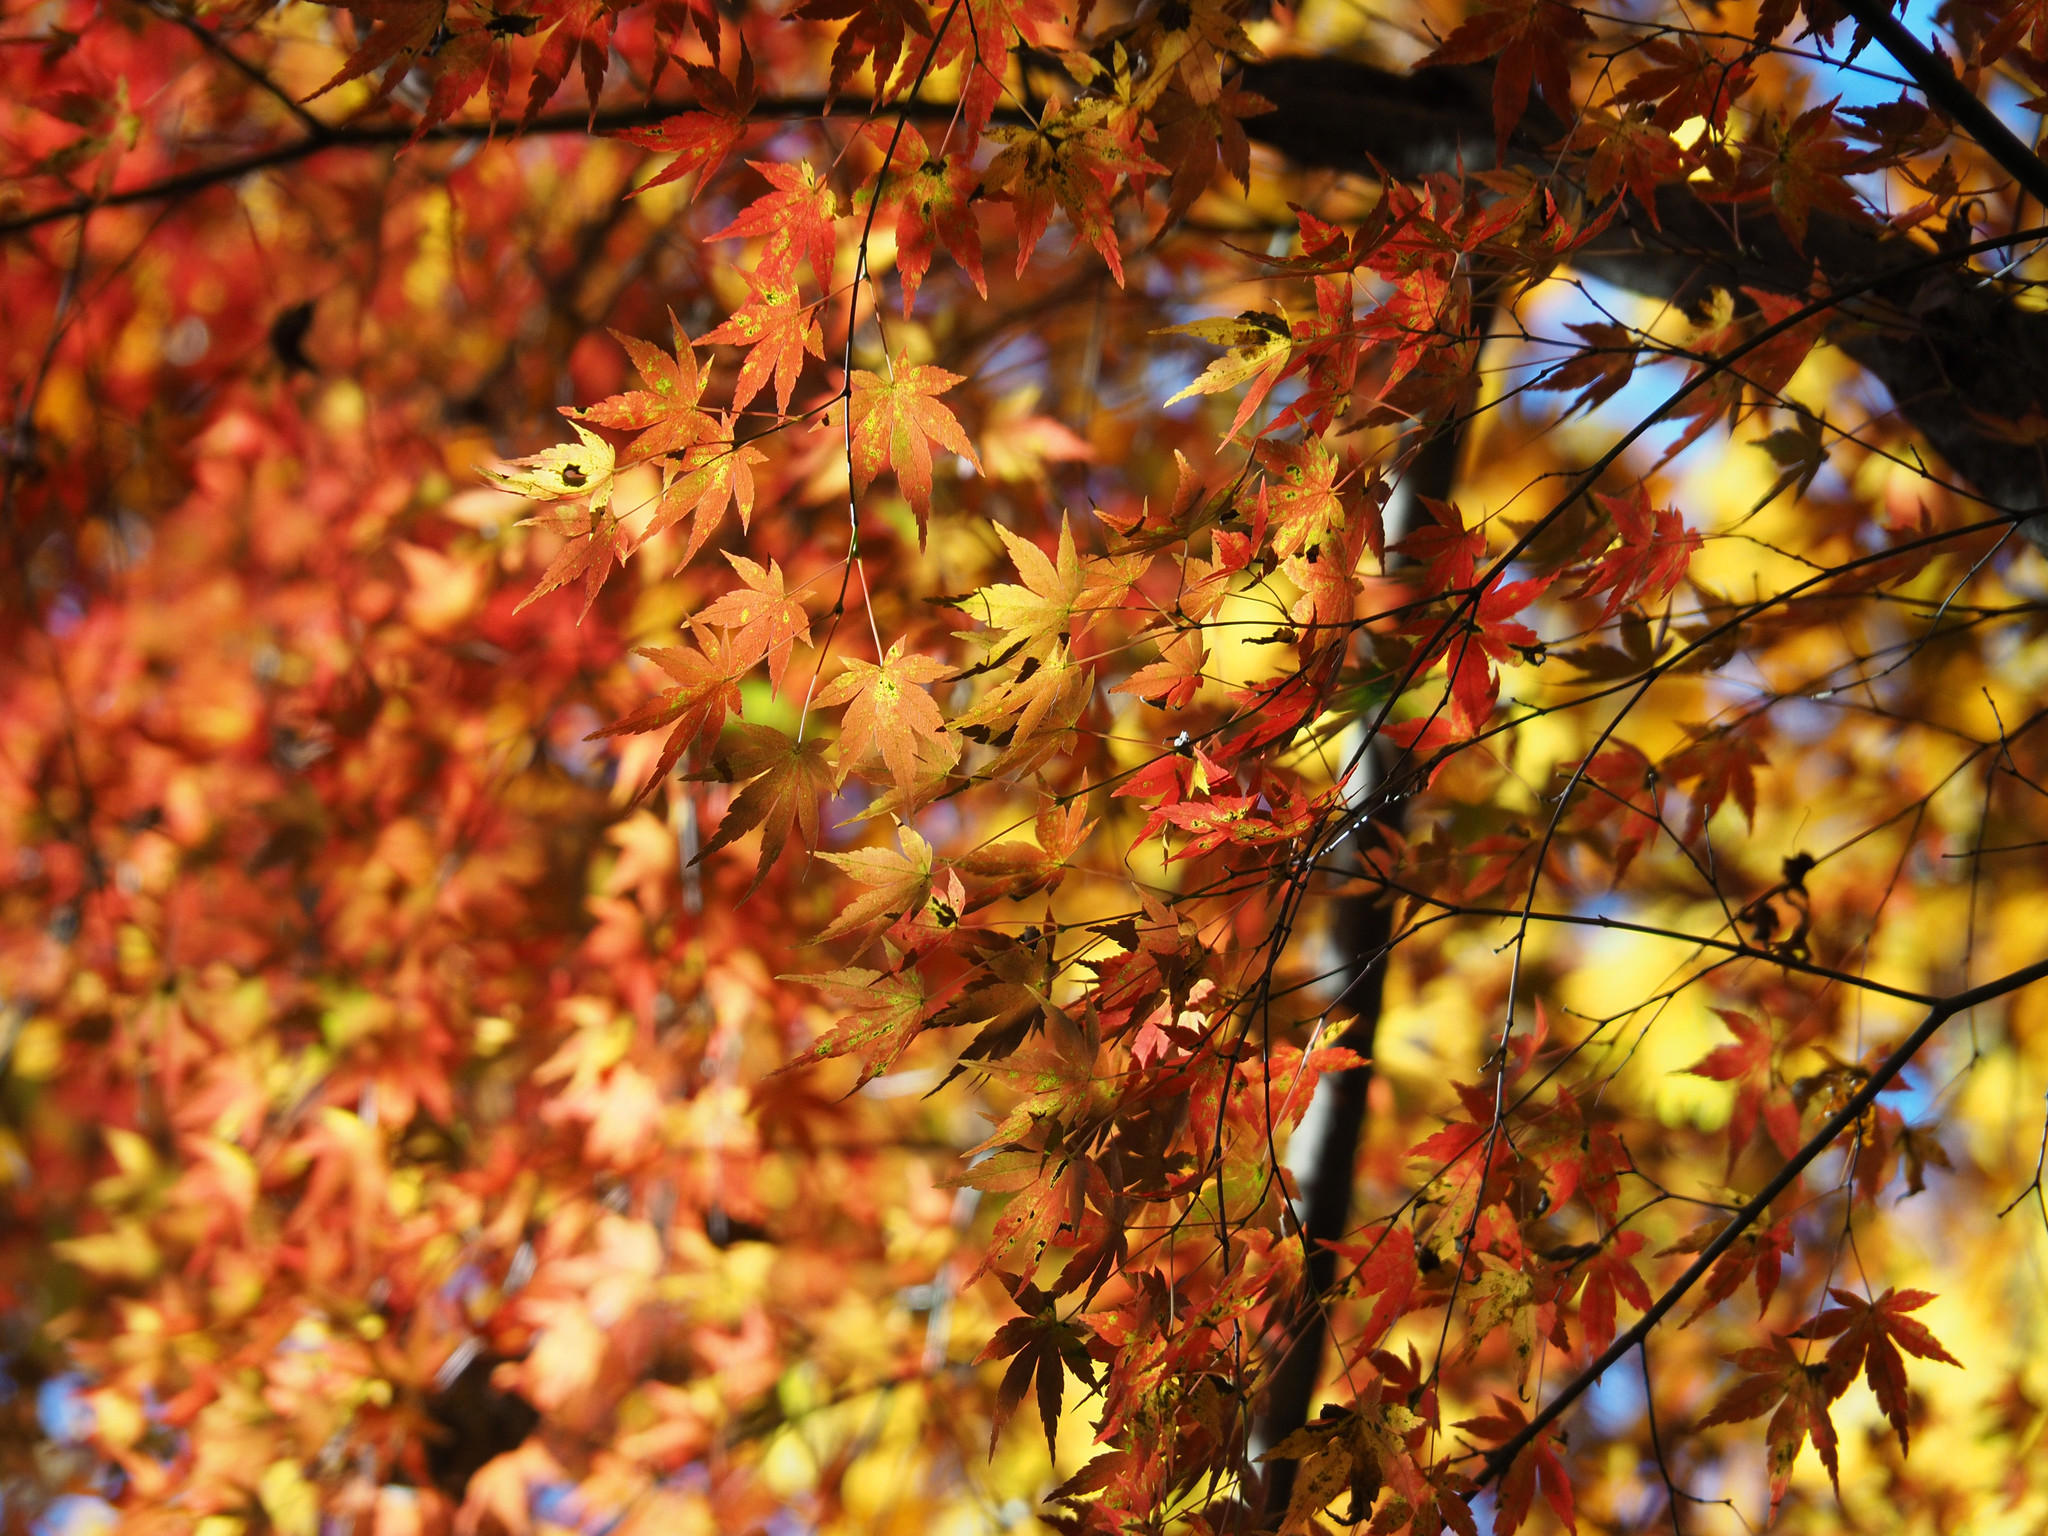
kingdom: Plantae
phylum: Tracheophyta
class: Magnoliopsida
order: Sapindales
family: Sapindaceae
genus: Acer
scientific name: Acer palmatum
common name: Japanese maple
